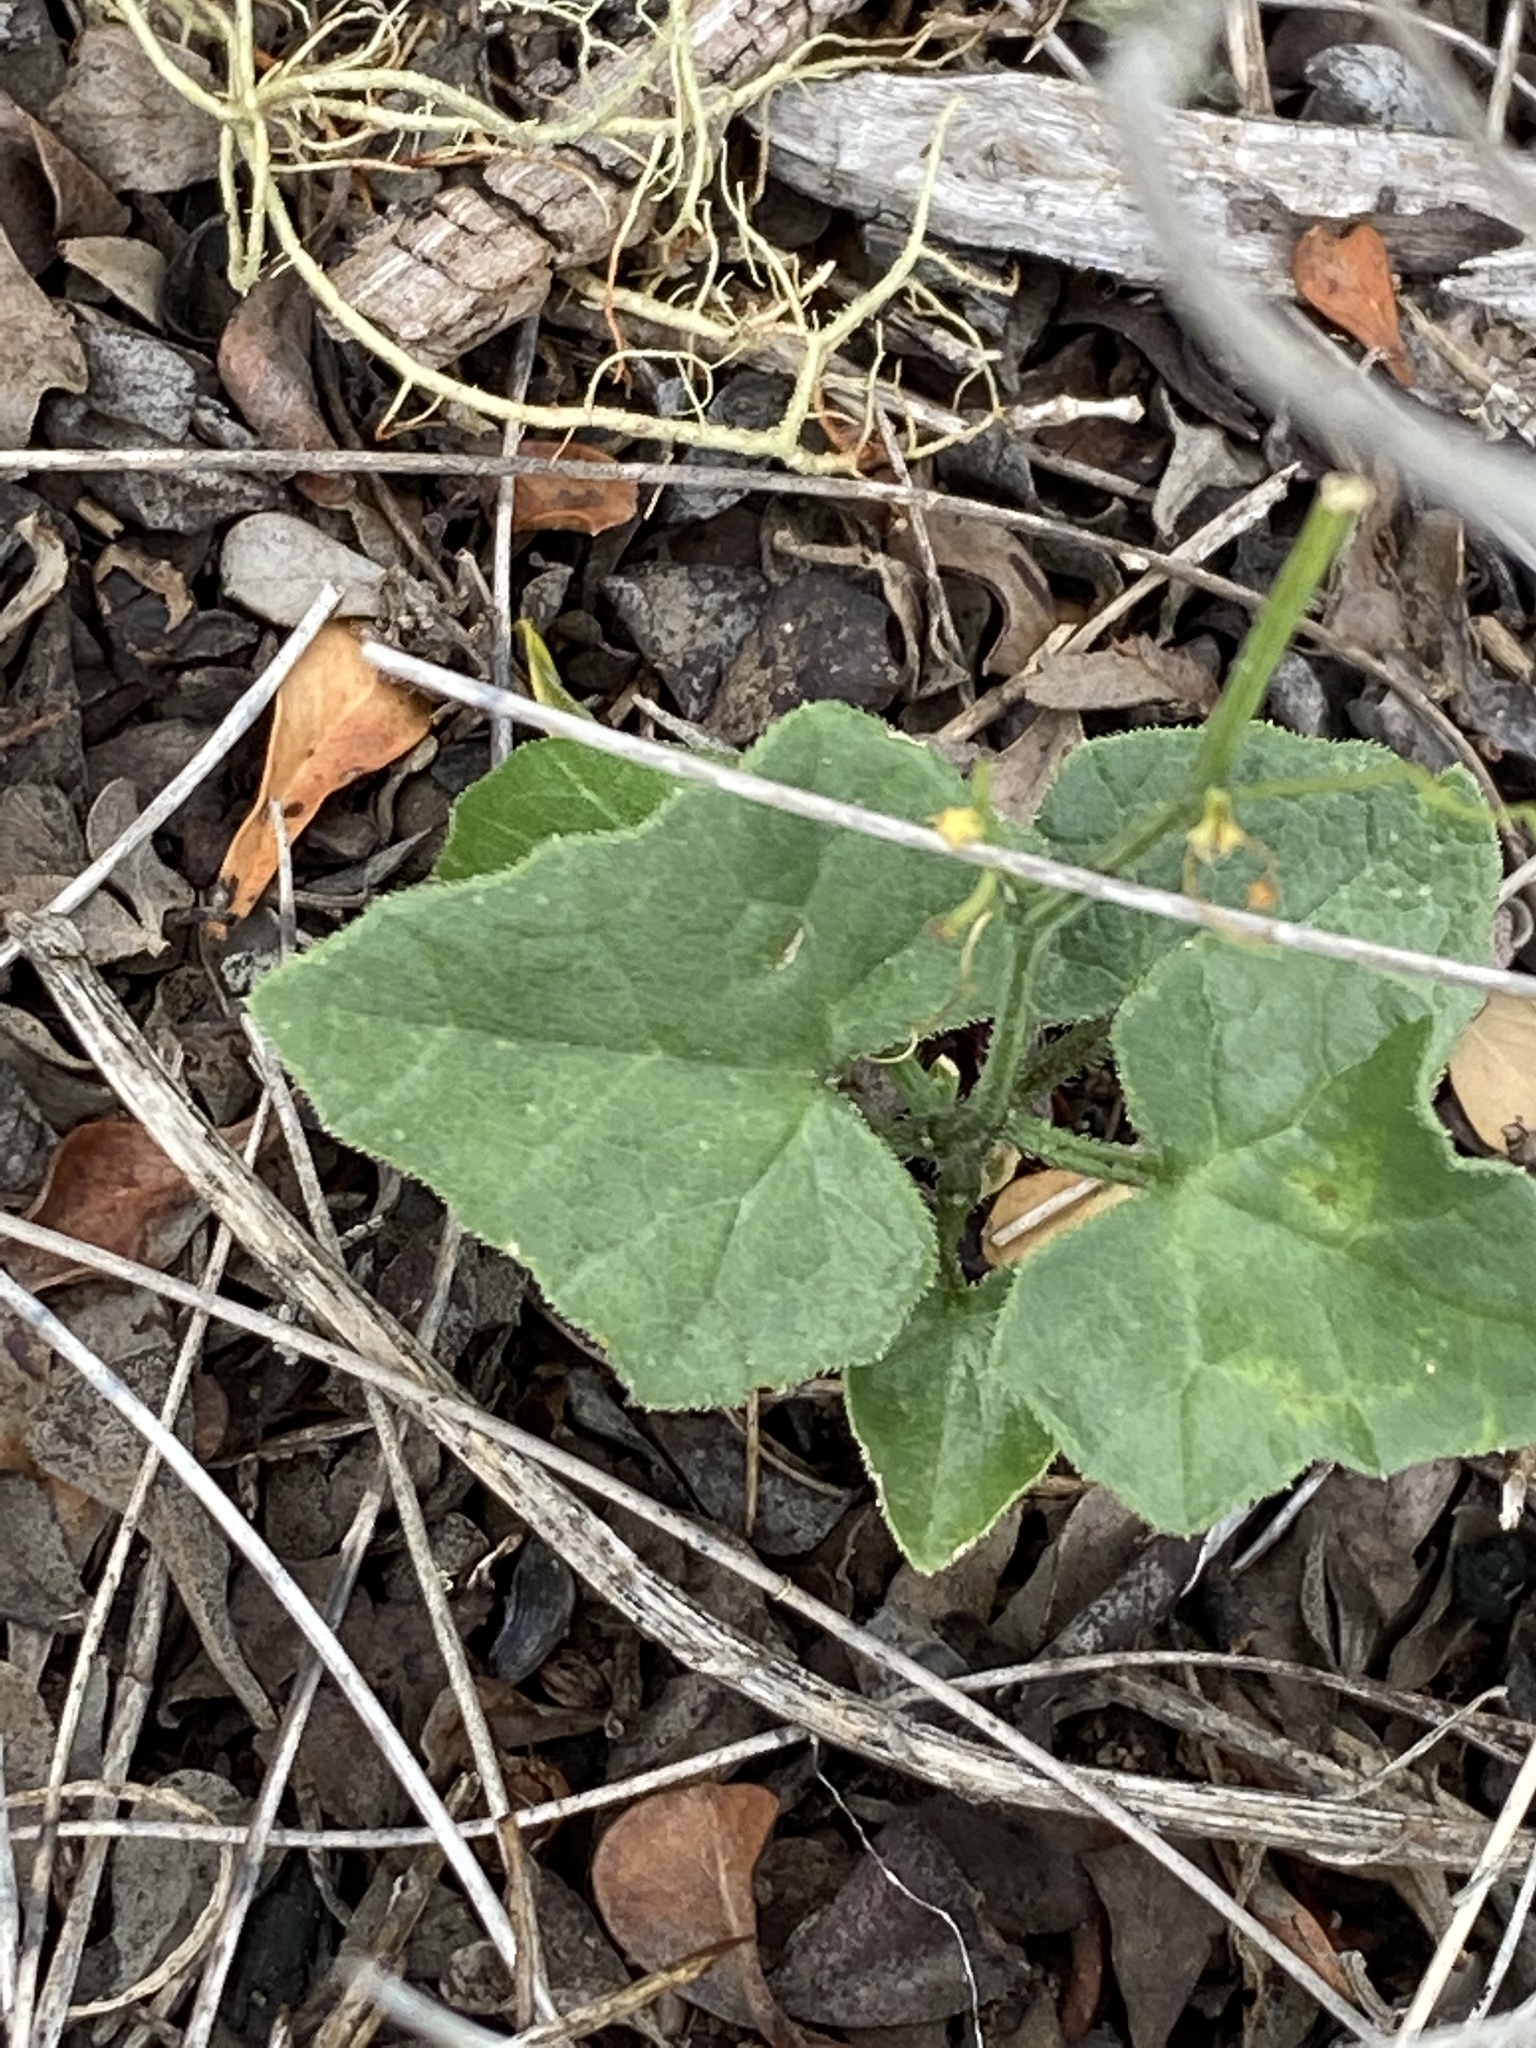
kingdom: Plantae
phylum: Tracheophyta
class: Magnoliopsida
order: Cucurbitales
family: Cucurbitaceae
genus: Kedrostis
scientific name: Kedrostis nana
